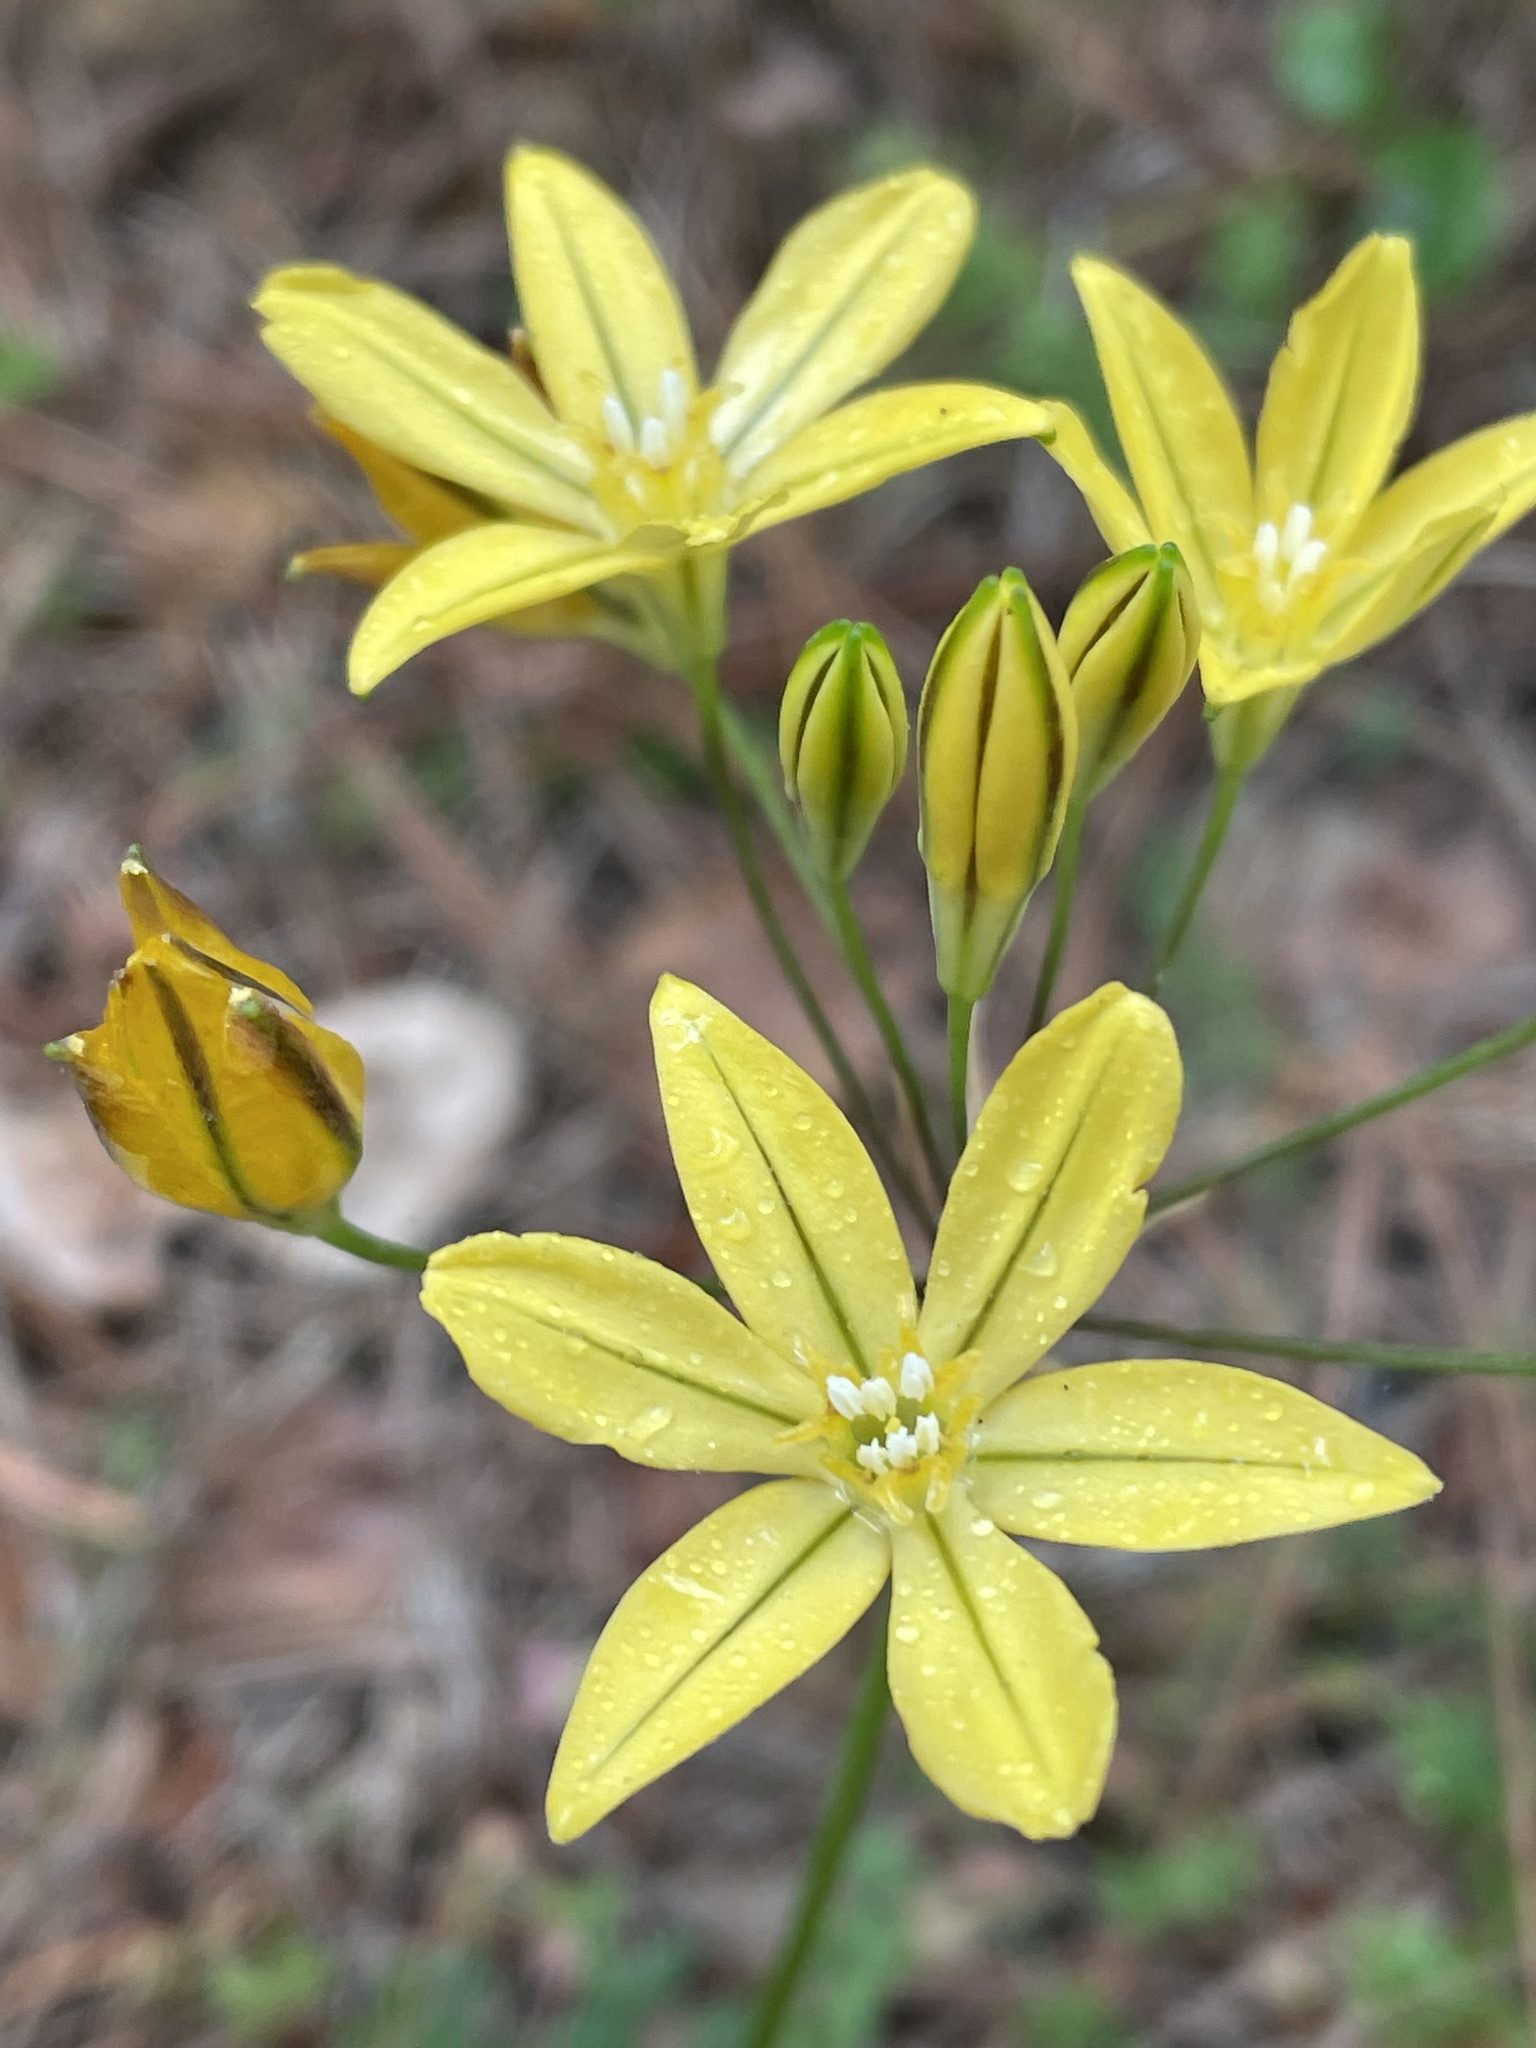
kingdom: Plantae
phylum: Tracheophyta
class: Liliopsida
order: Asparagales
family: Asparagaceae
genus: Triteleia
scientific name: Triteleia ixioides
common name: Yellow-brodiaea
